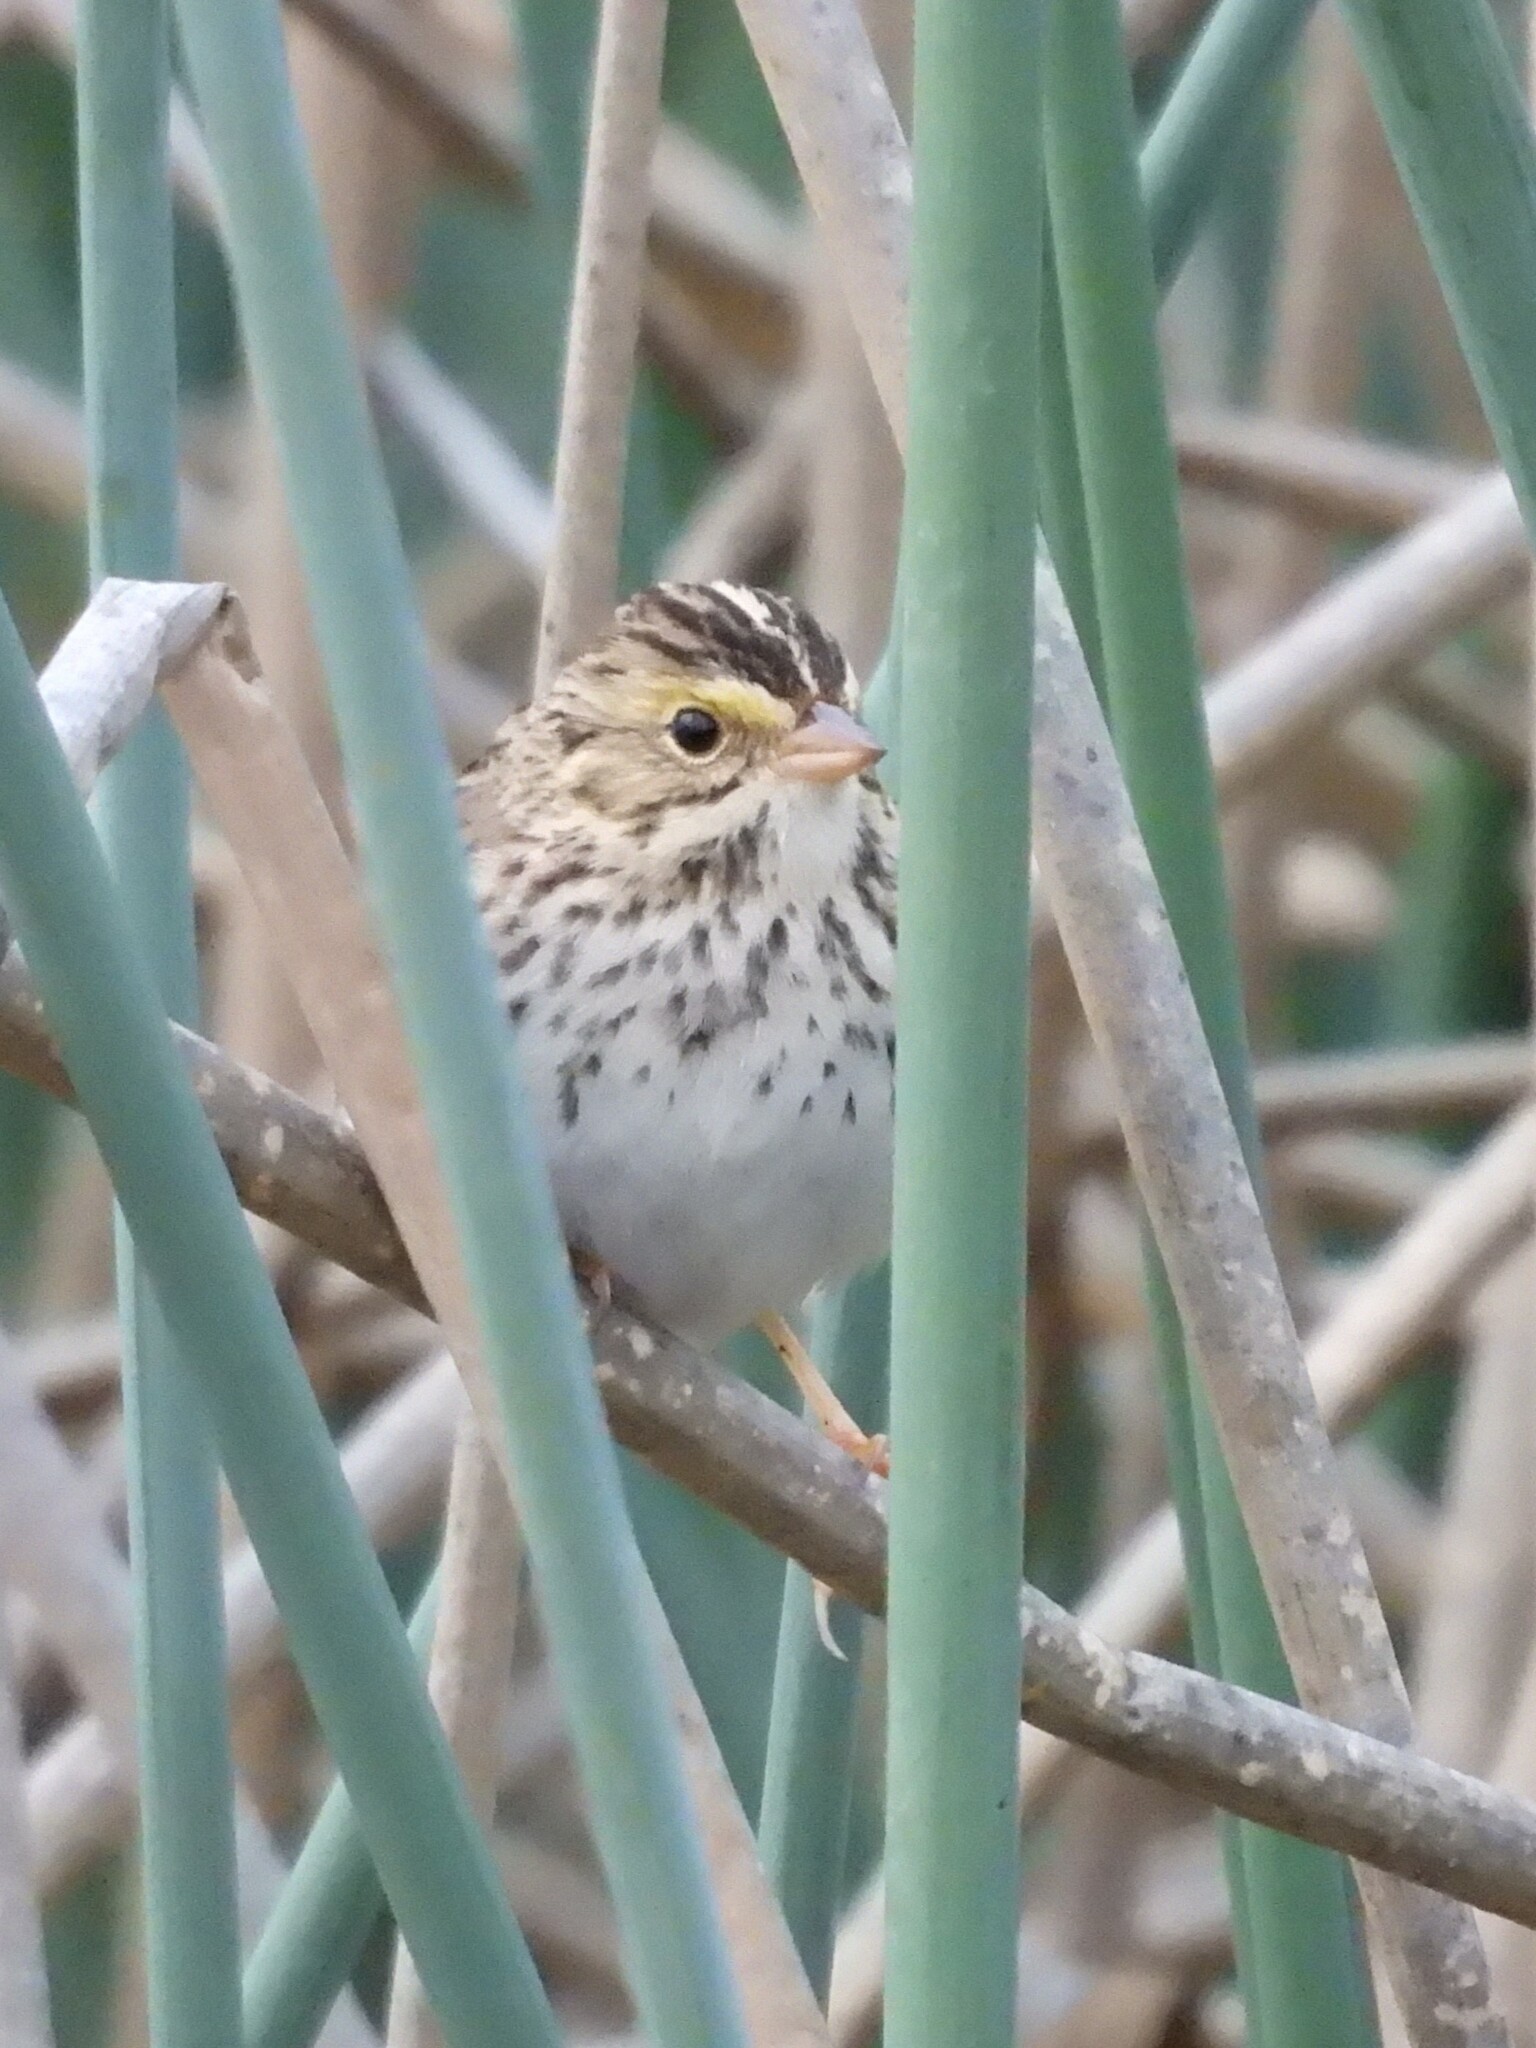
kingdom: Animalia
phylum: Chordata
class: Aves
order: Passeriformes
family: Passerellidae
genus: Passerculus
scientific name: Passerculus sandwichensis
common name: Savannah sparrow
